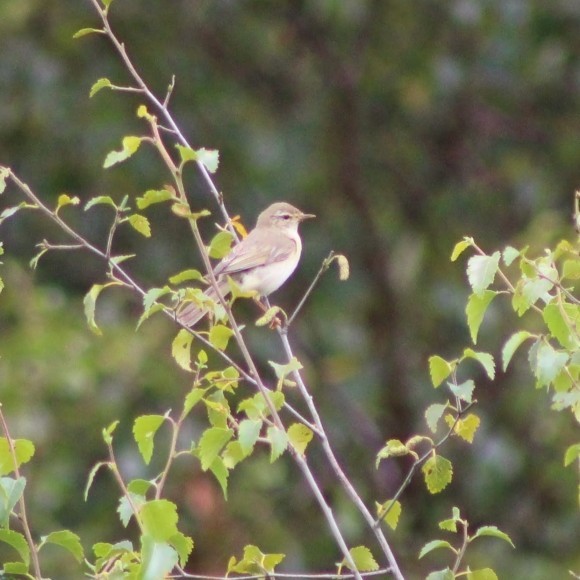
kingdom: Animalia
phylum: Chordata
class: Aves
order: Passeriformes
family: Phylloscopidae
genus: Phylloscopus
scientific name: Phylloscopus trochilus
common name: Willow warbler
